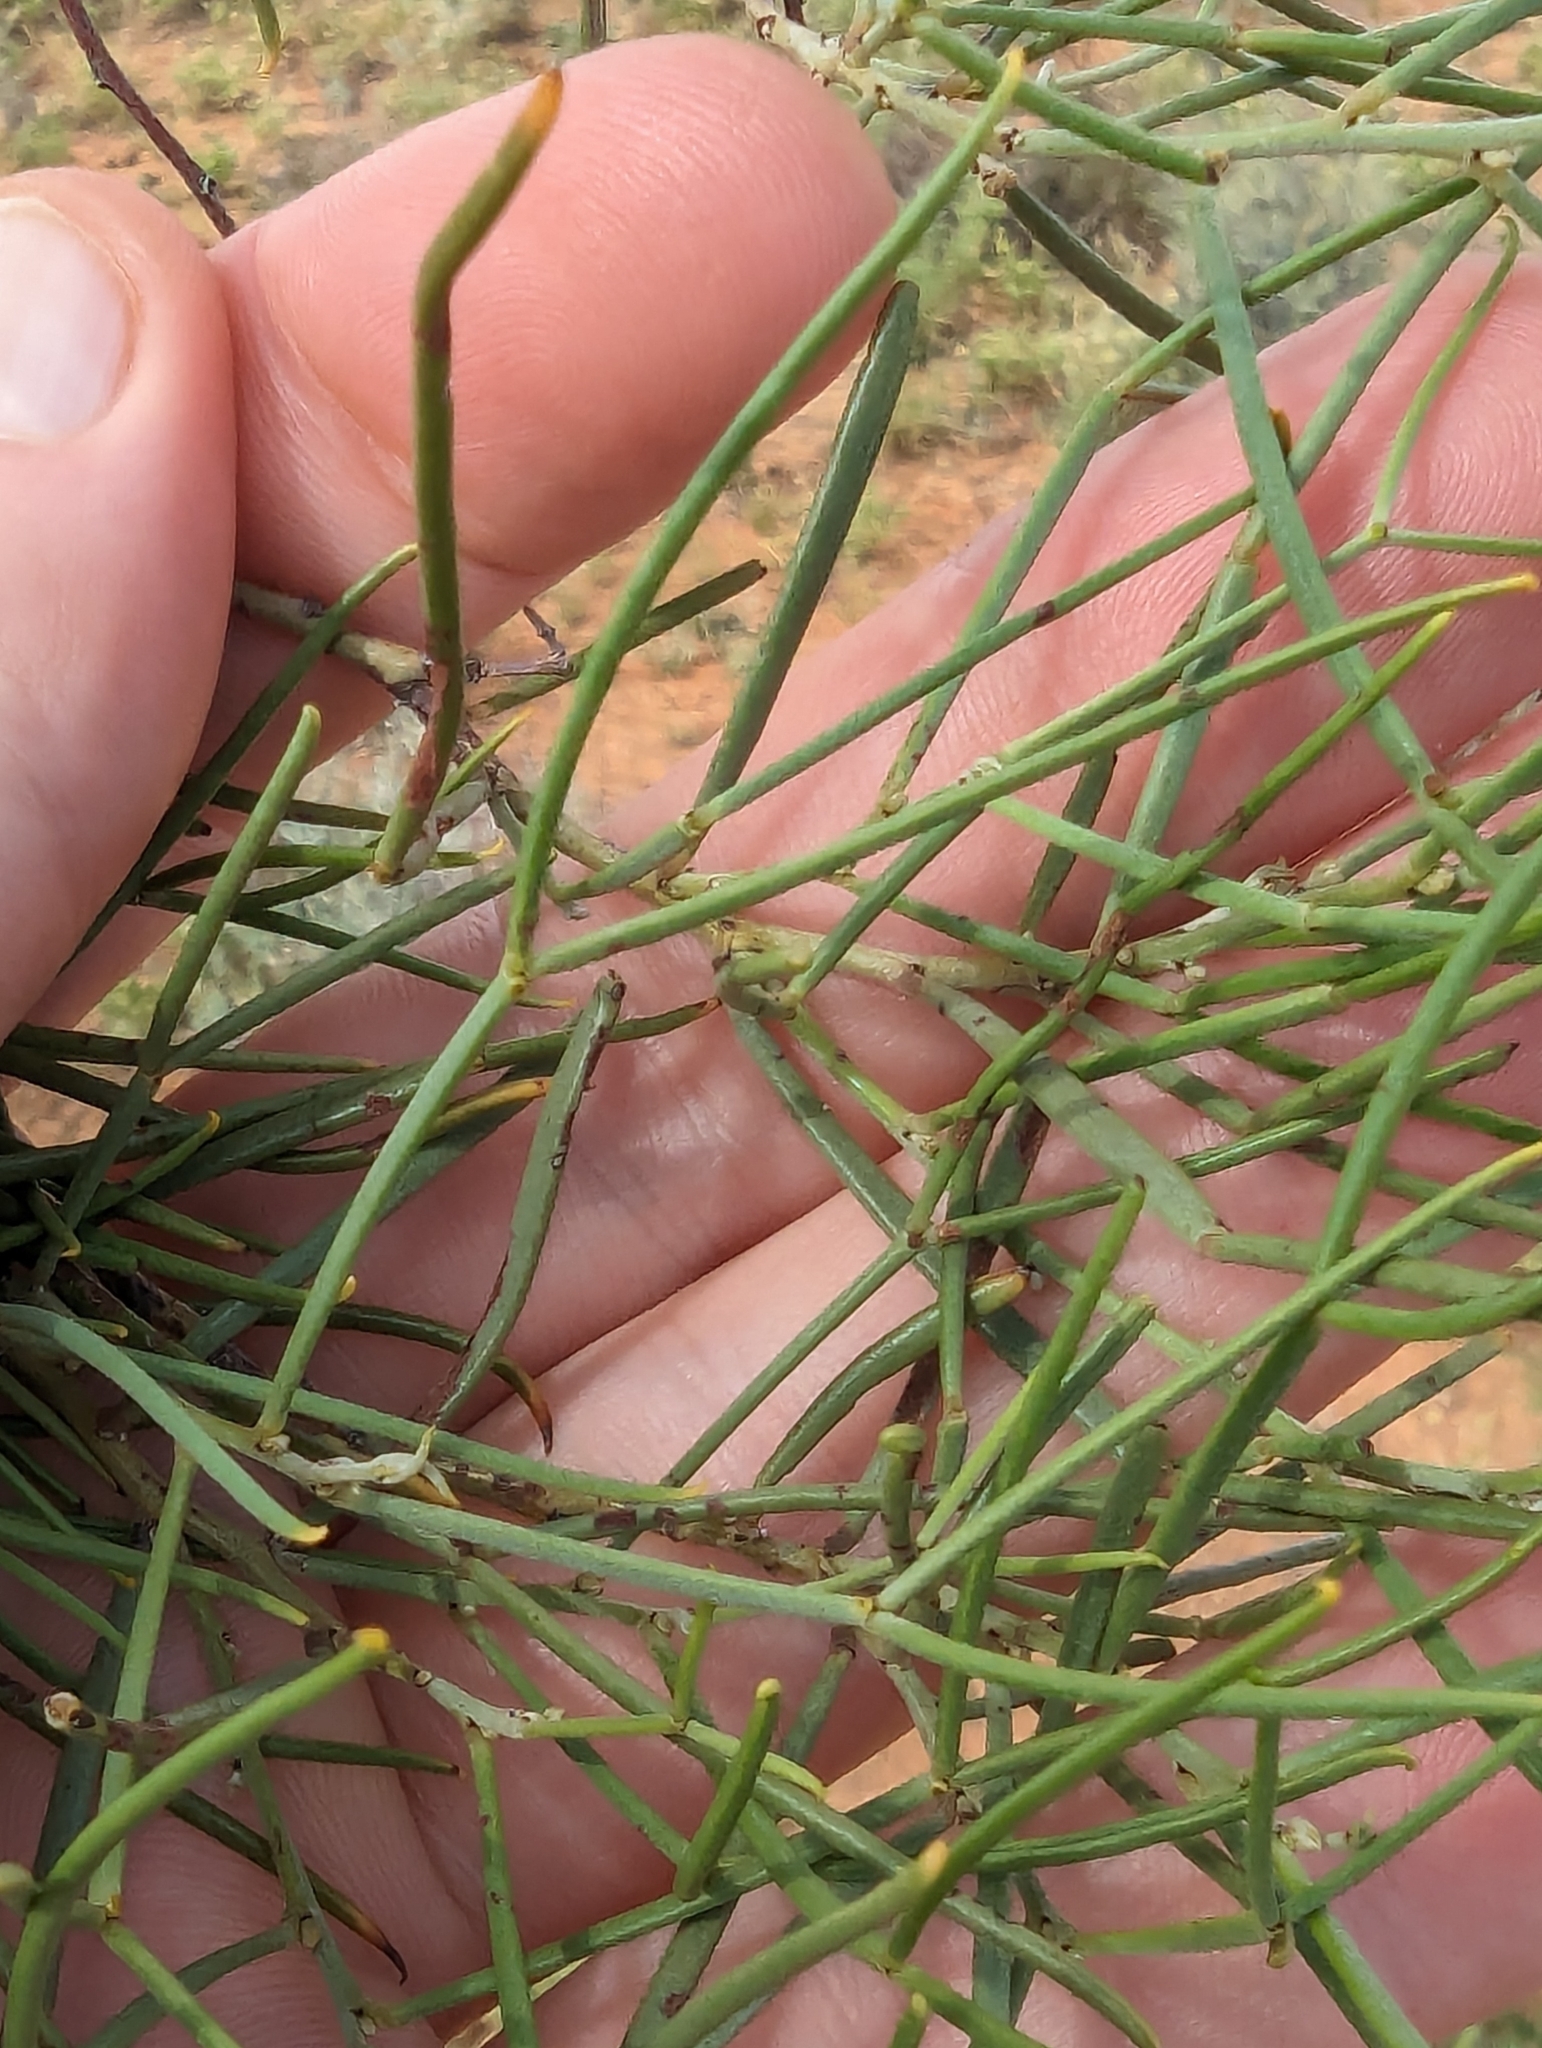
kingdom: Plantae
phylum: Tracheophyta
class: Magnoliopsida
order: Fabales
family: Fabaceae
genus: Senna
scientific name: Senna artemisioides
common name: Burnt-leaved acacia
